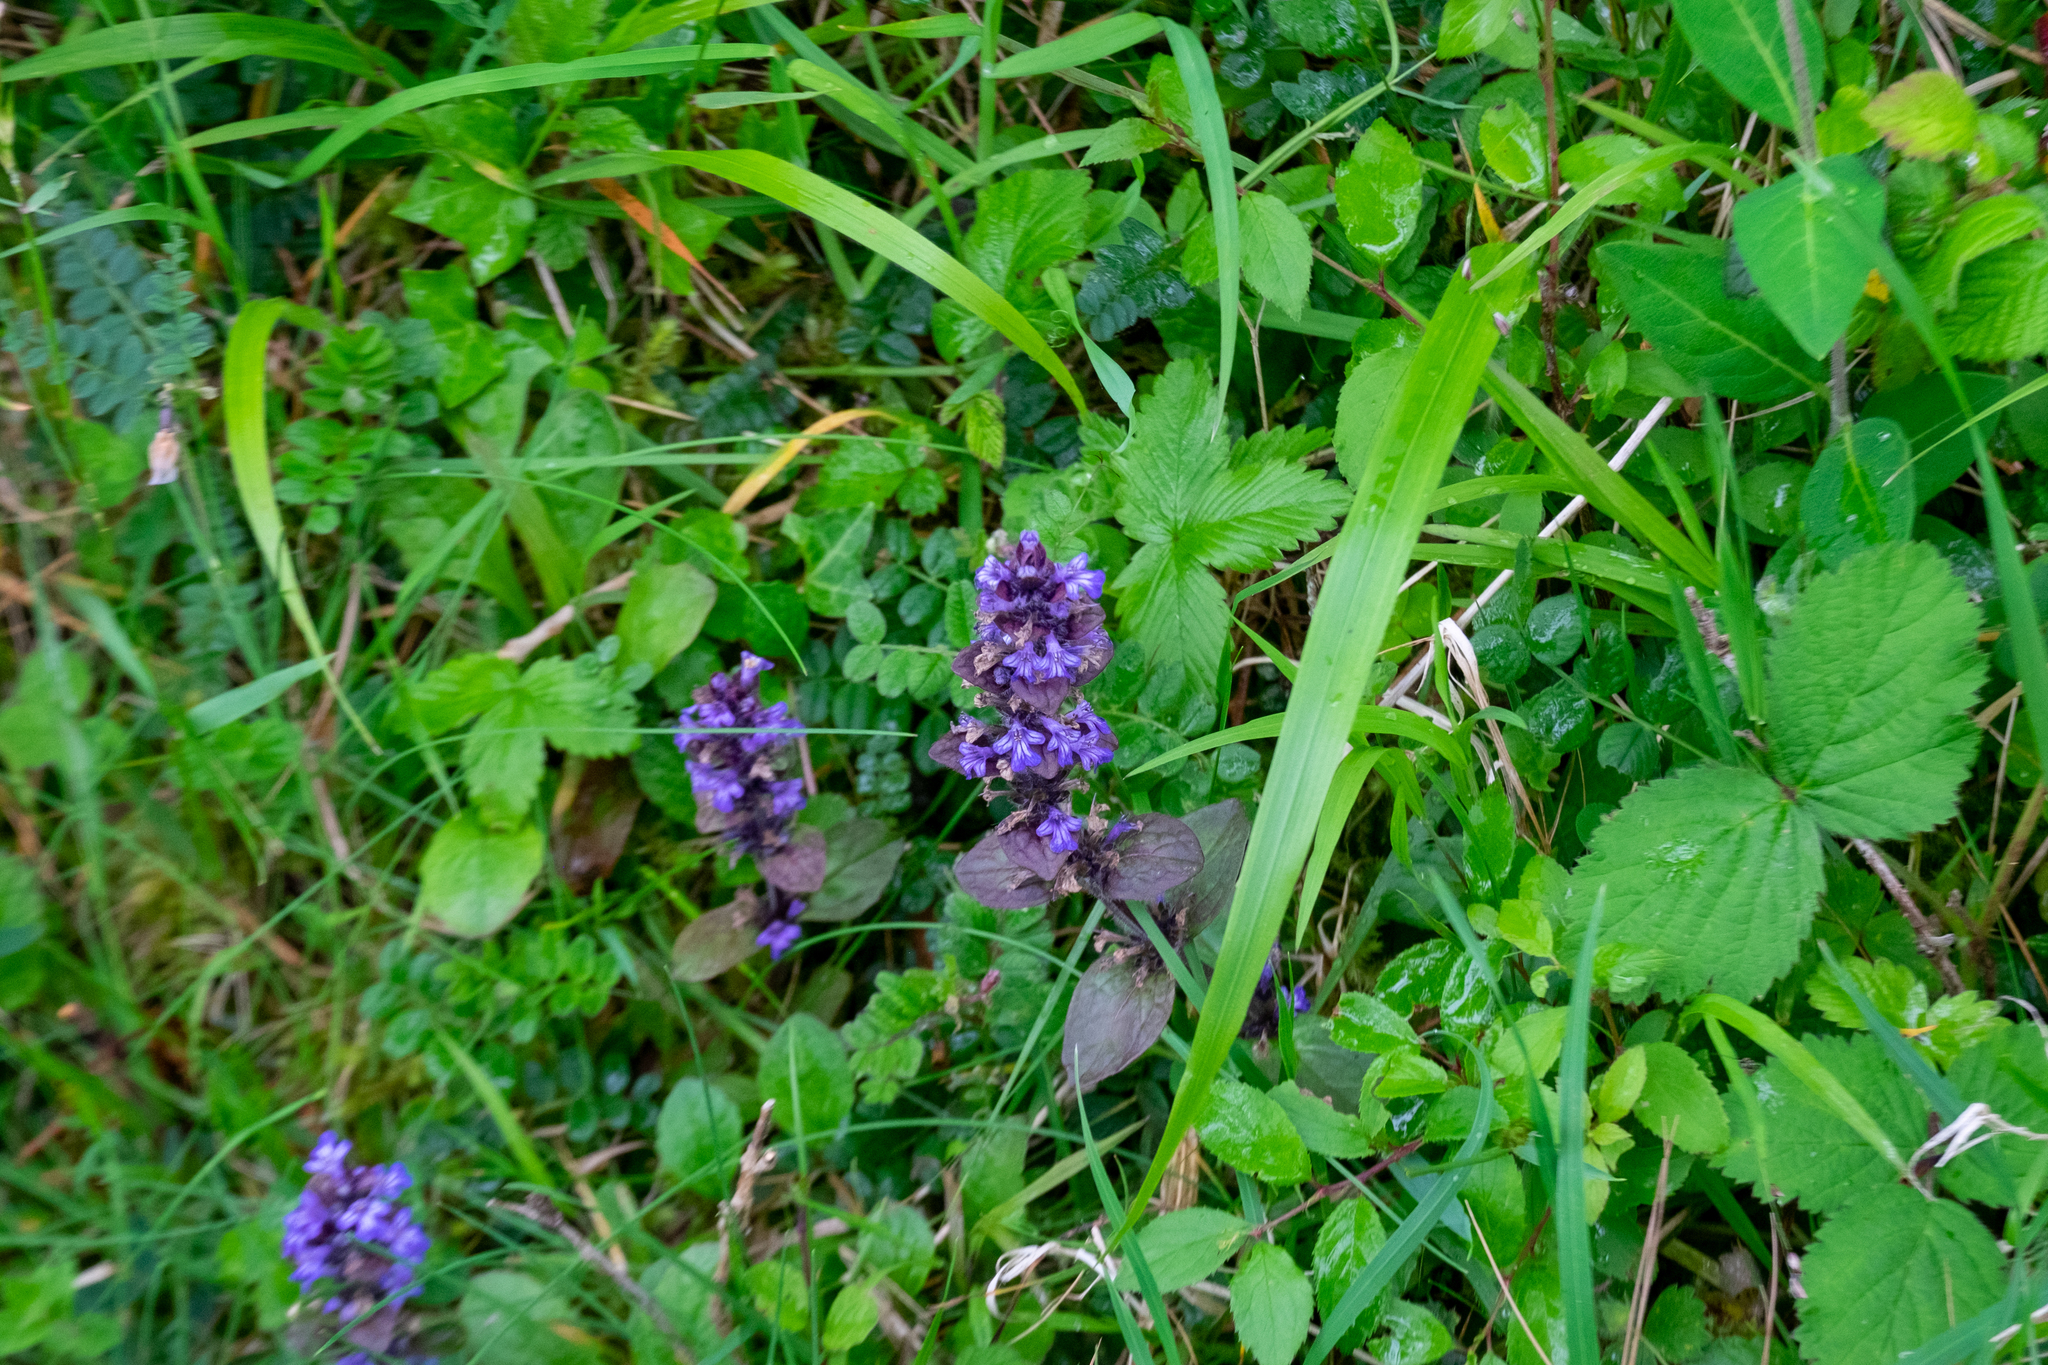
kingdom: Plantae
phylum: Tracheophyta
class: Magnoliopsida
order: Lamiales
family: Lamiaceae
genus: Ajuga
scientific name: Ajuga reptans
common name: Bugle
